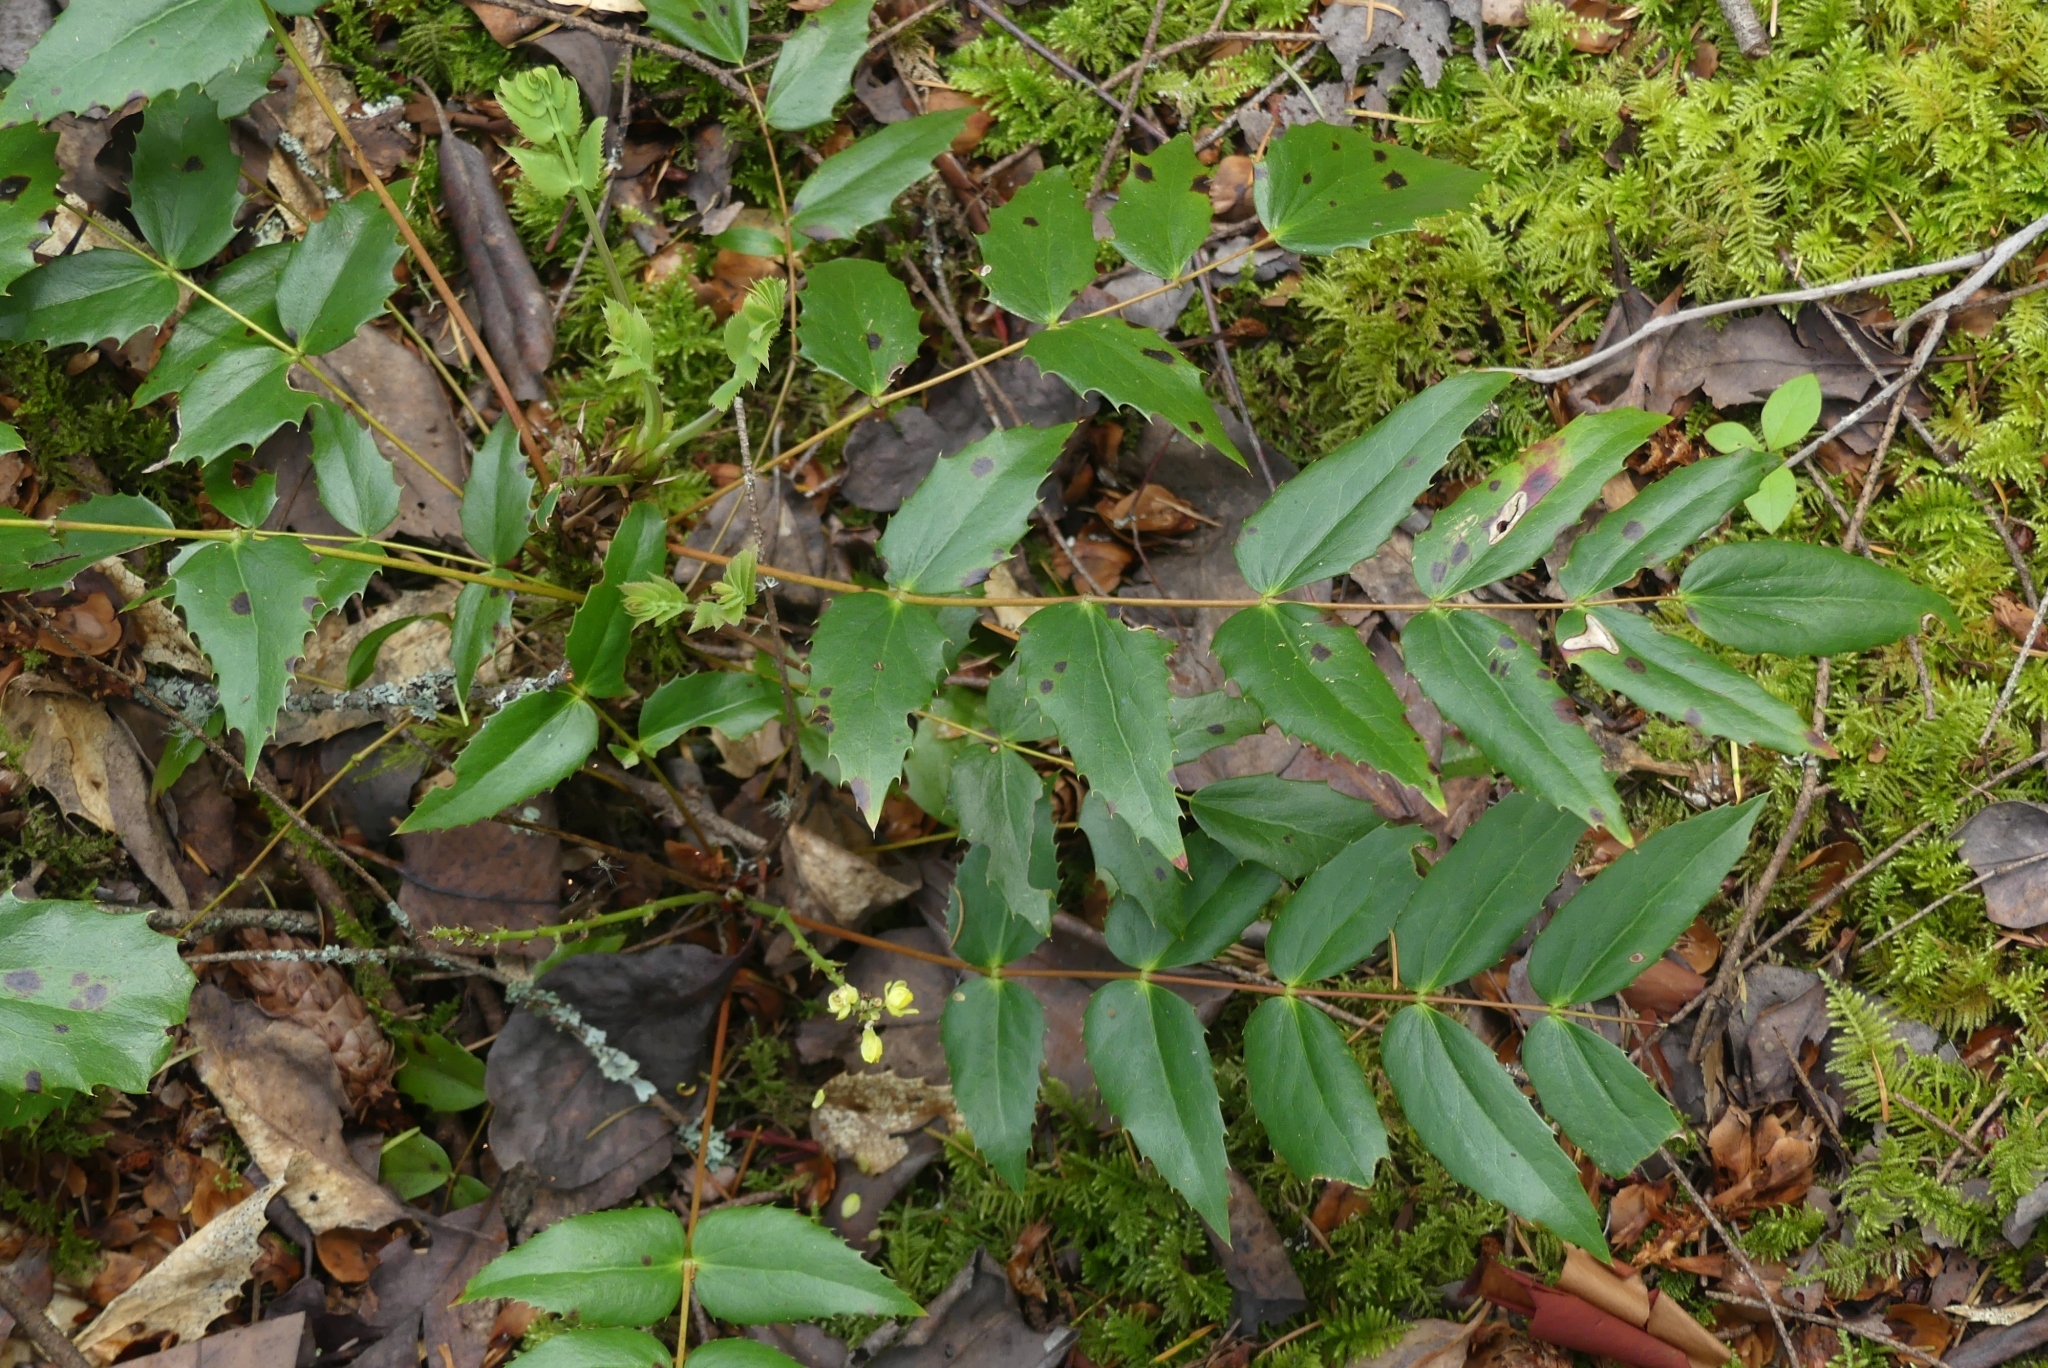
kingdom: Plantae
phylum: Tracheophyta
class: Magnoliopsida
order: Ranunculales
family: Berberidaceae
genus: Mahonia
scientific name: Mahonia nervosa
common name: Cascade oregon-grape
